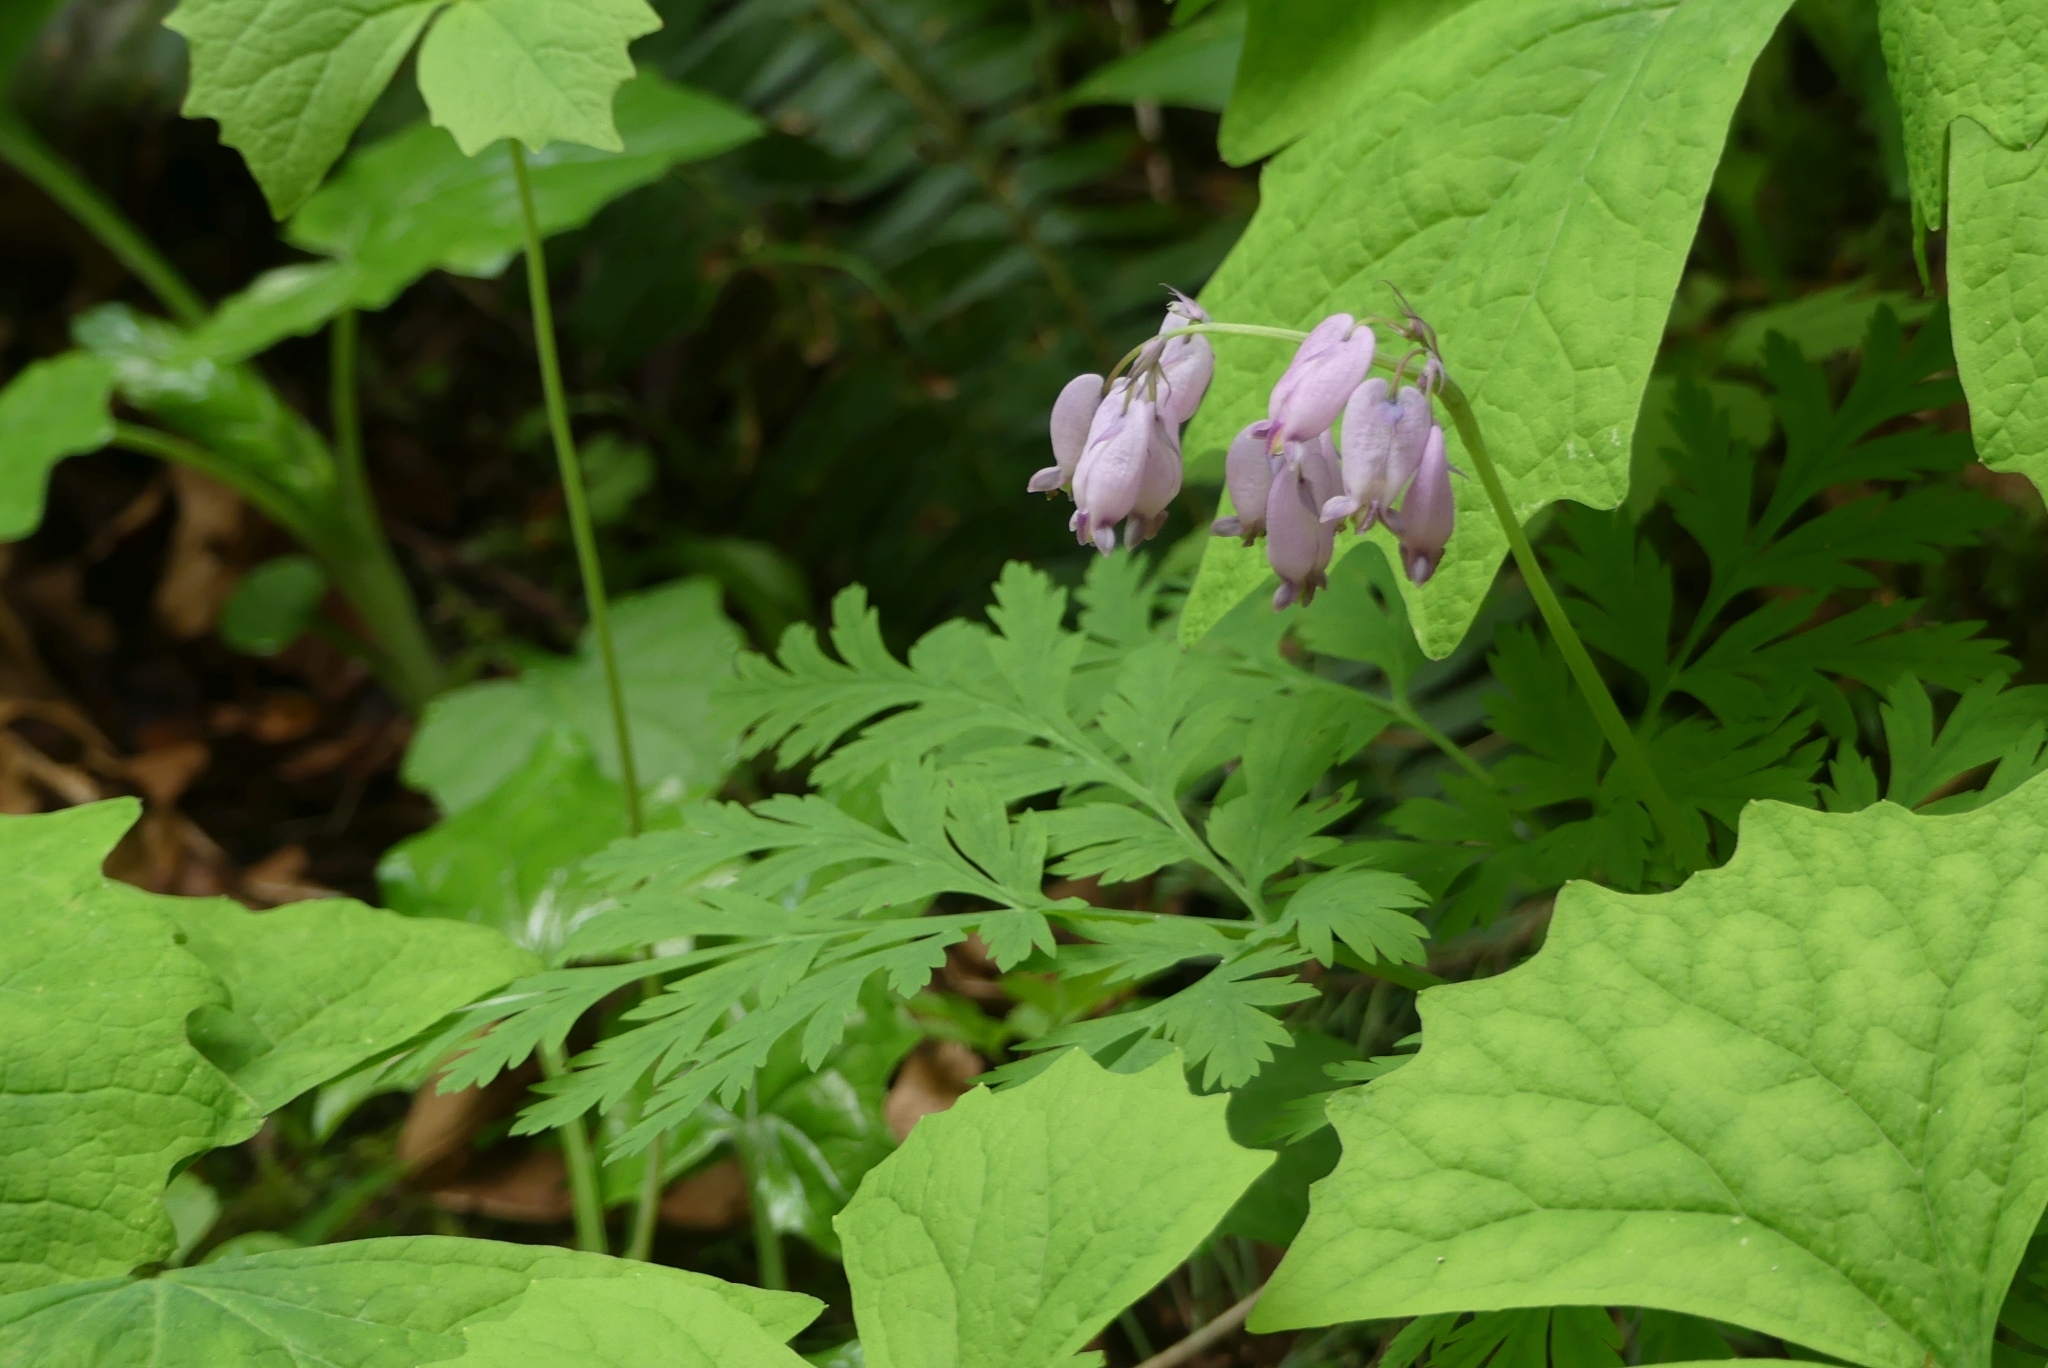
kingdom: Plantae
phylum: Tracheophyta
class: Magnoliopsida
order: Ranunculales
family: Papaveraceae
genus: Dicentra
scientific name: Dicentra formosa
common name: Bleeding-heart
